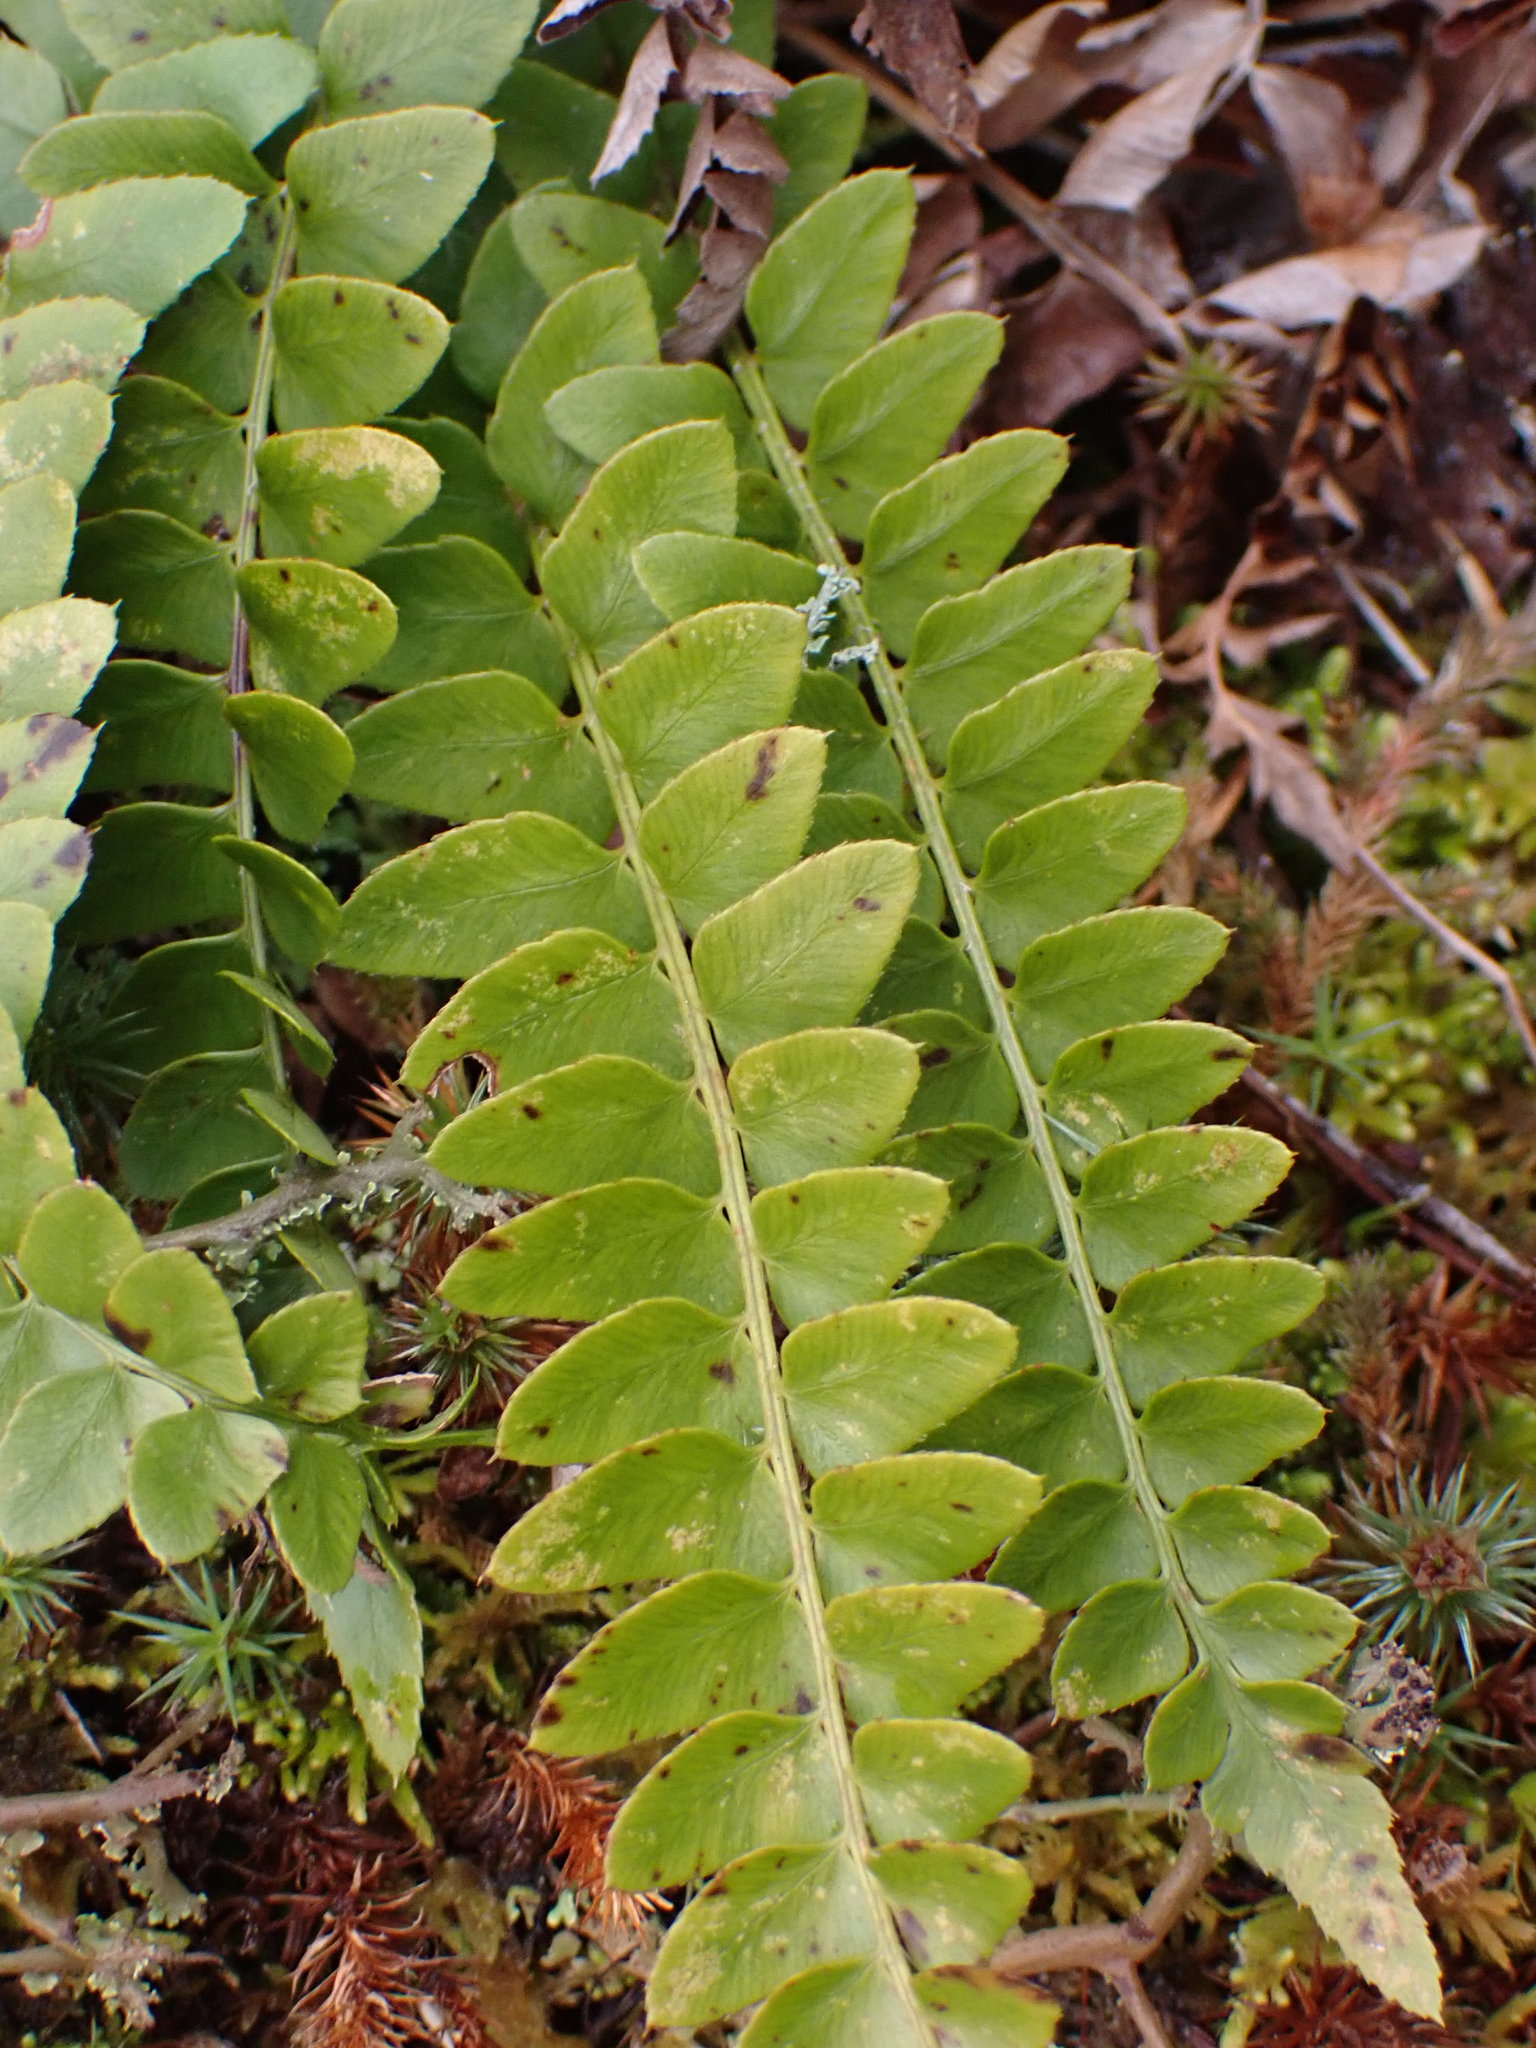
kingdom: Plantae
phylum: Tracheophyta
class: Polypodiopsida
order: Polypodiales
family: Dryopteridaceae
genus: Polystichum
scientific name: Polystichum imbricans
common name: Dwarf western sword fern
